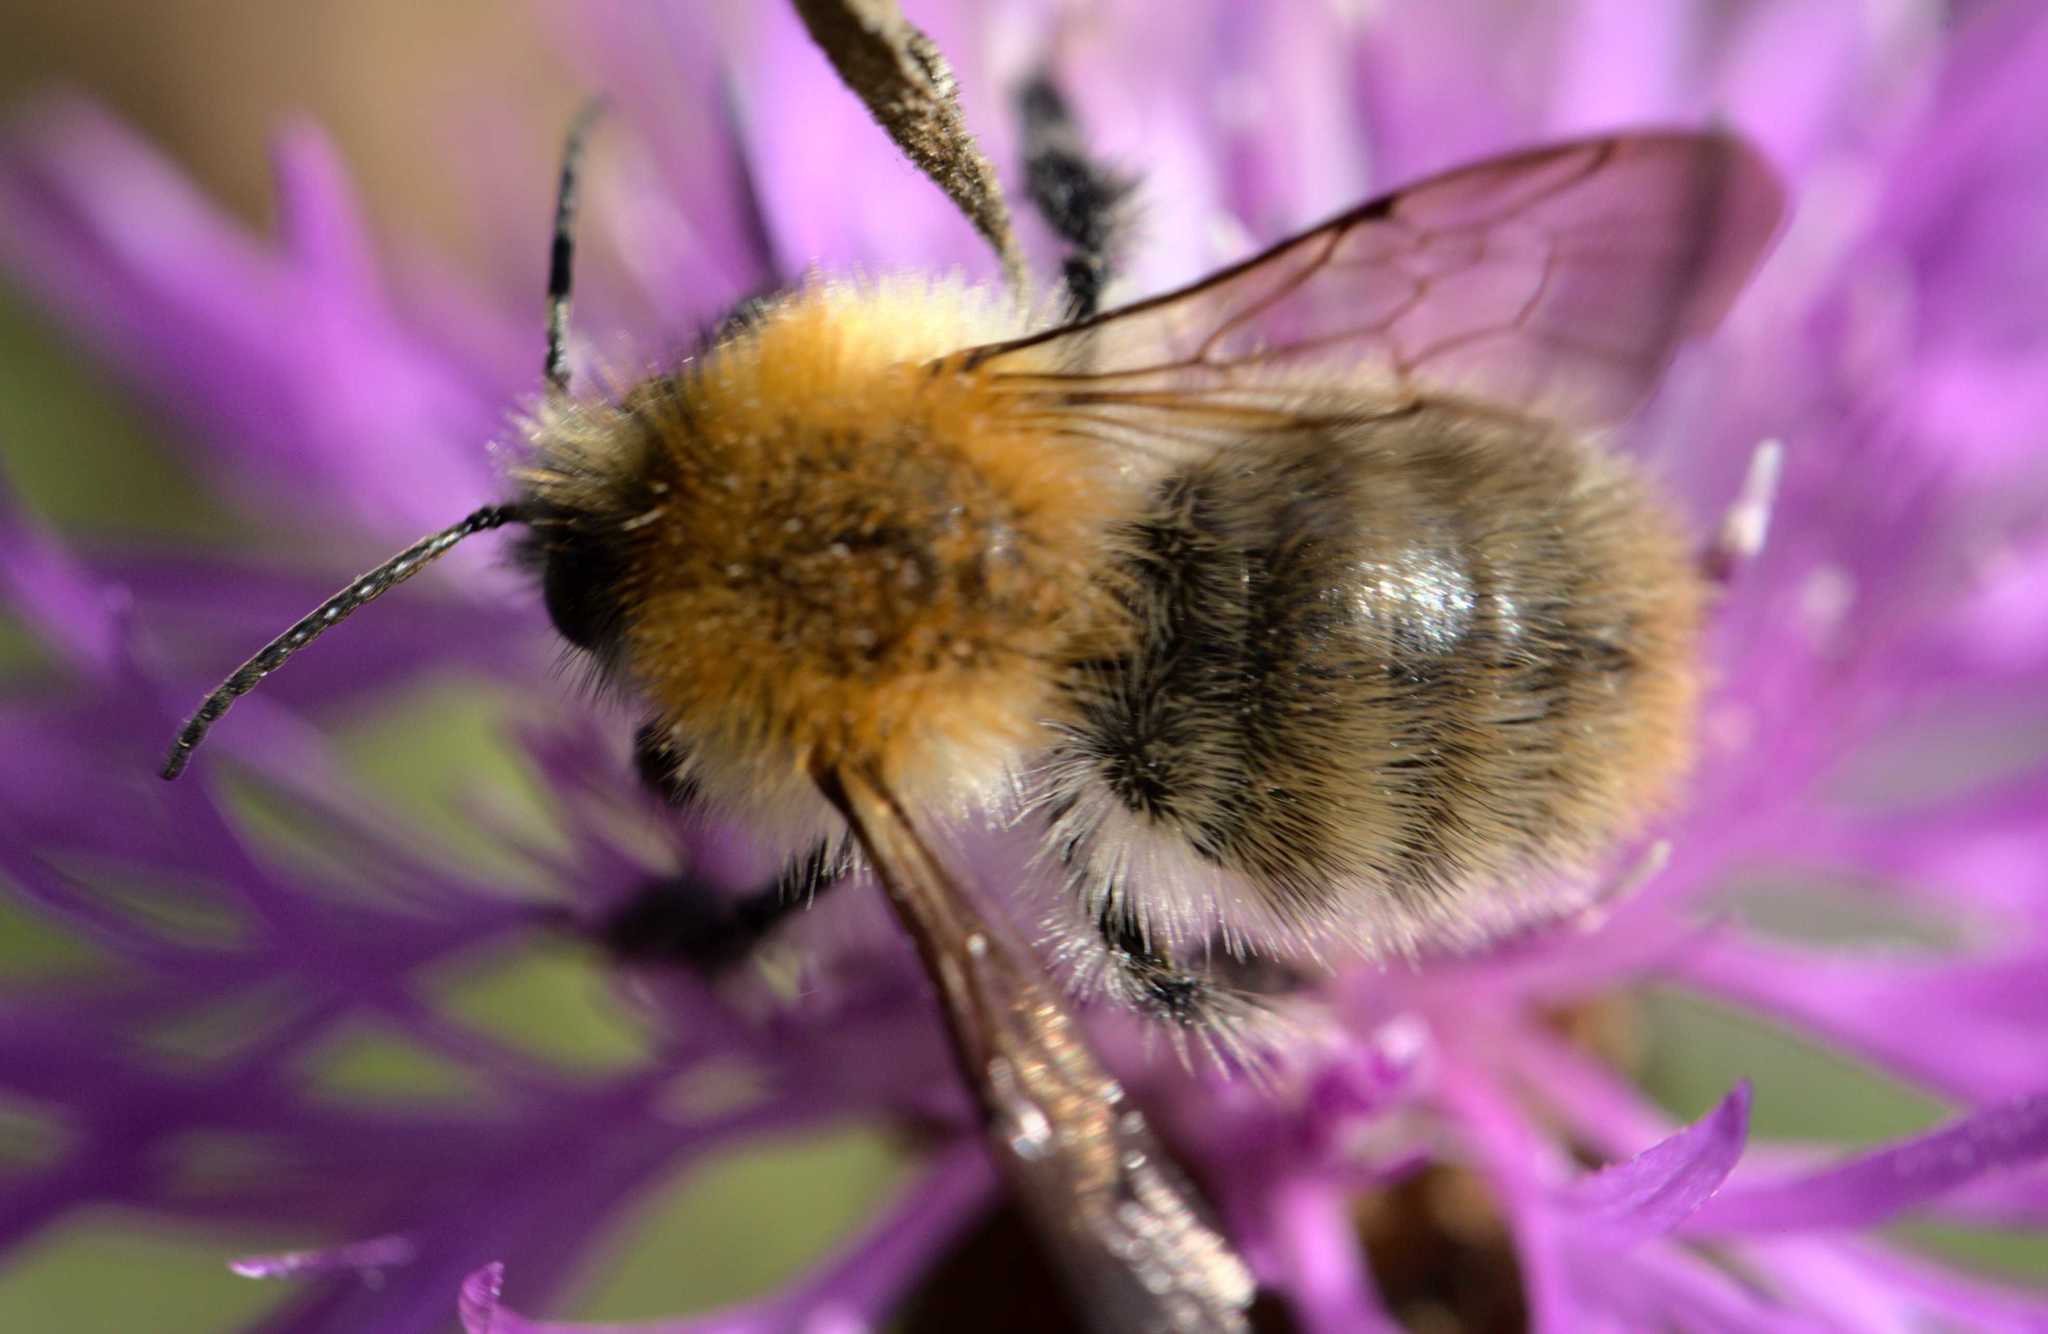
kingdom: Animalia
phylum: Arthropoda
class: Insecta
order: Hymenoptera
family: Apidae
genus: Bombus
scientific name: Bombus pascuorum
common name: Common carder bee
